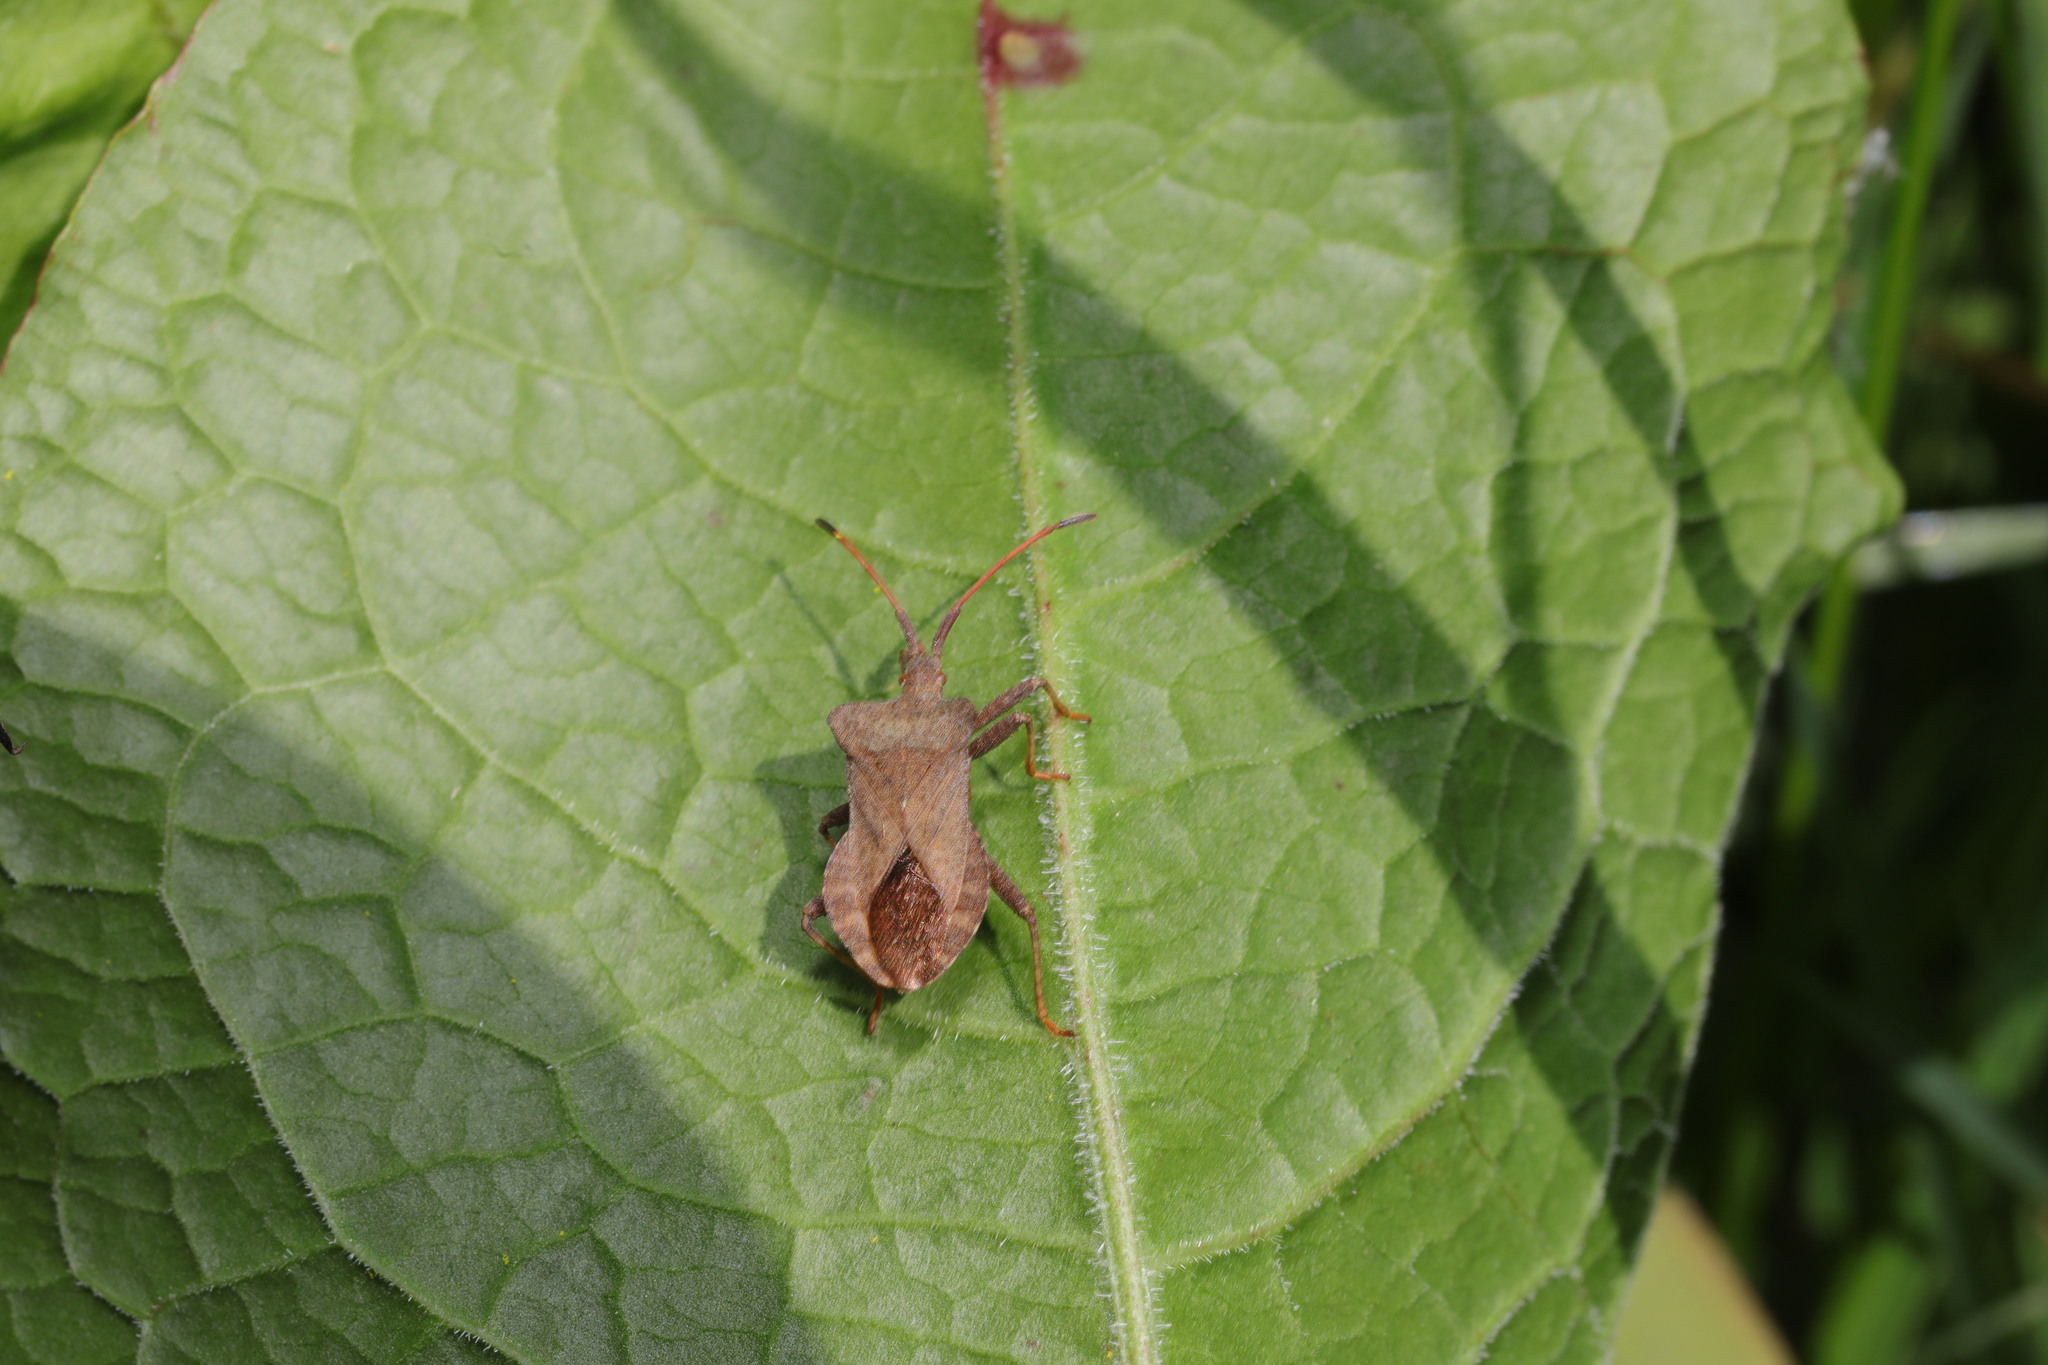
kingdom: Animalia
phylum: Arthropoda
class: Insecta
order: Hemiptera
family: Coreidae
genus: Coreus
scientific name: Coreus marginatus
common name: Dock bug
